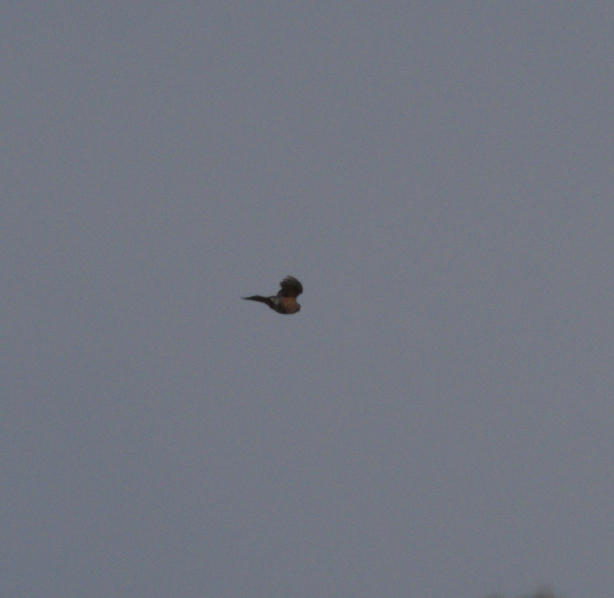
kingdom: Animalia
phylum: Chordata
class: Aves
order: Accipitriformes
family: Accipitridae
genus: Accipiter
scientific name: Accipiter striatus
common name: Sharp-shinned hawk
